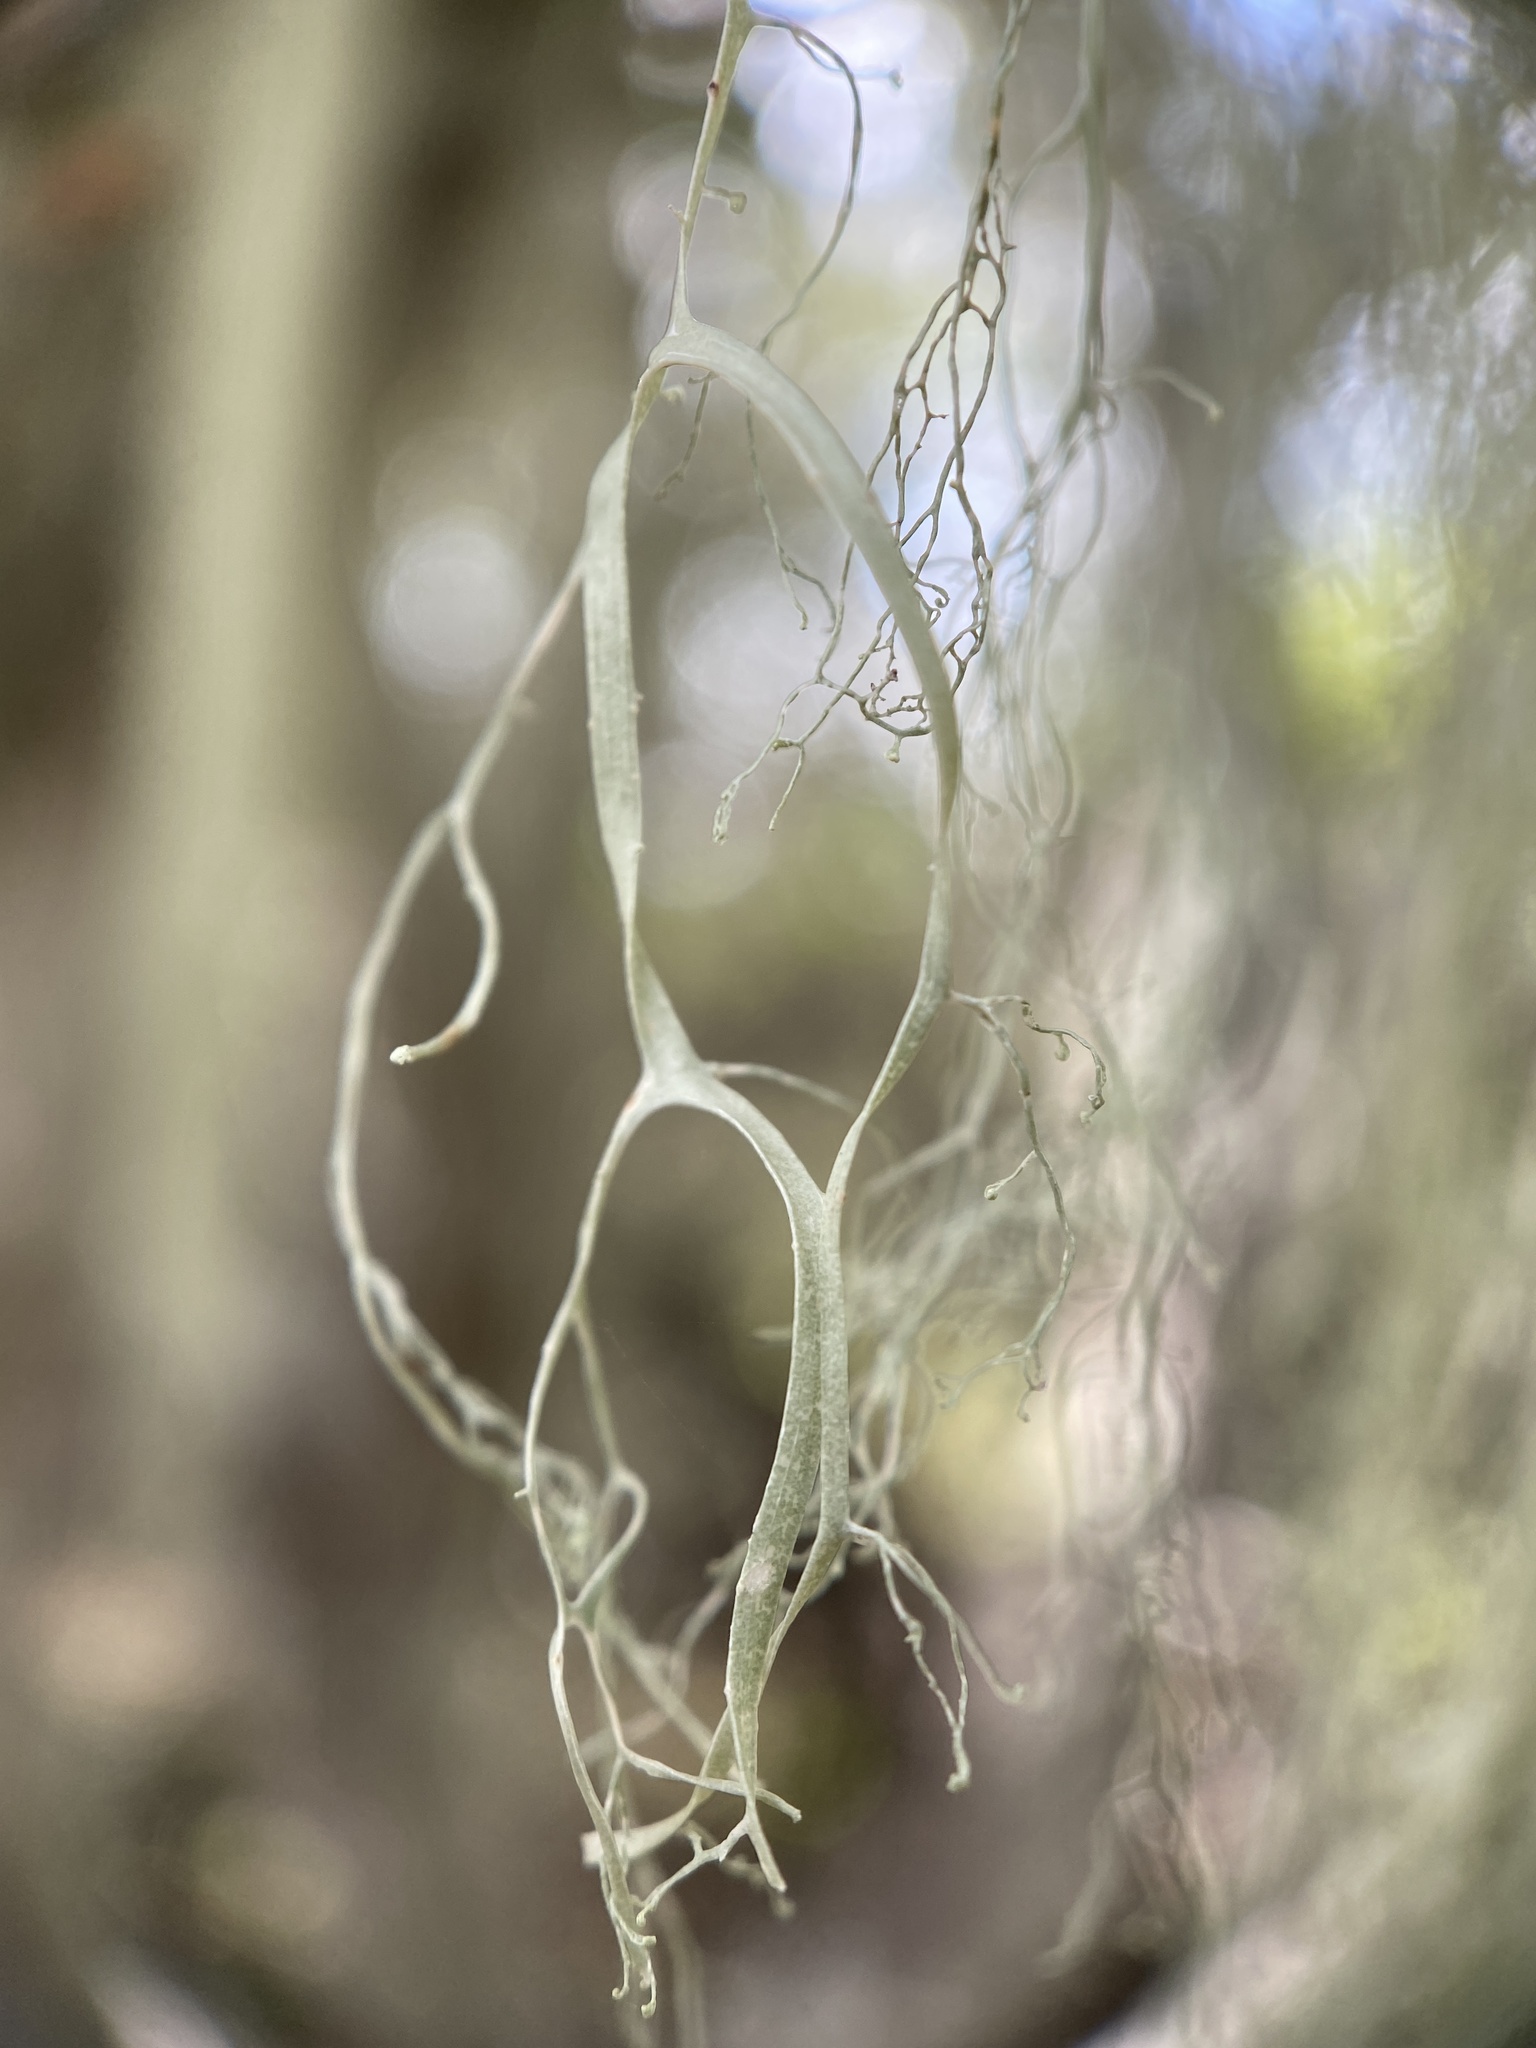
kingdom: Fungi
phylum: Ascomycota
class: Lecanoromycetes
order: Lecanorales
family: Ramalinaceae
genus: Ramalina
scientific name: Ramalina menziesii
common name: Lace lichen
